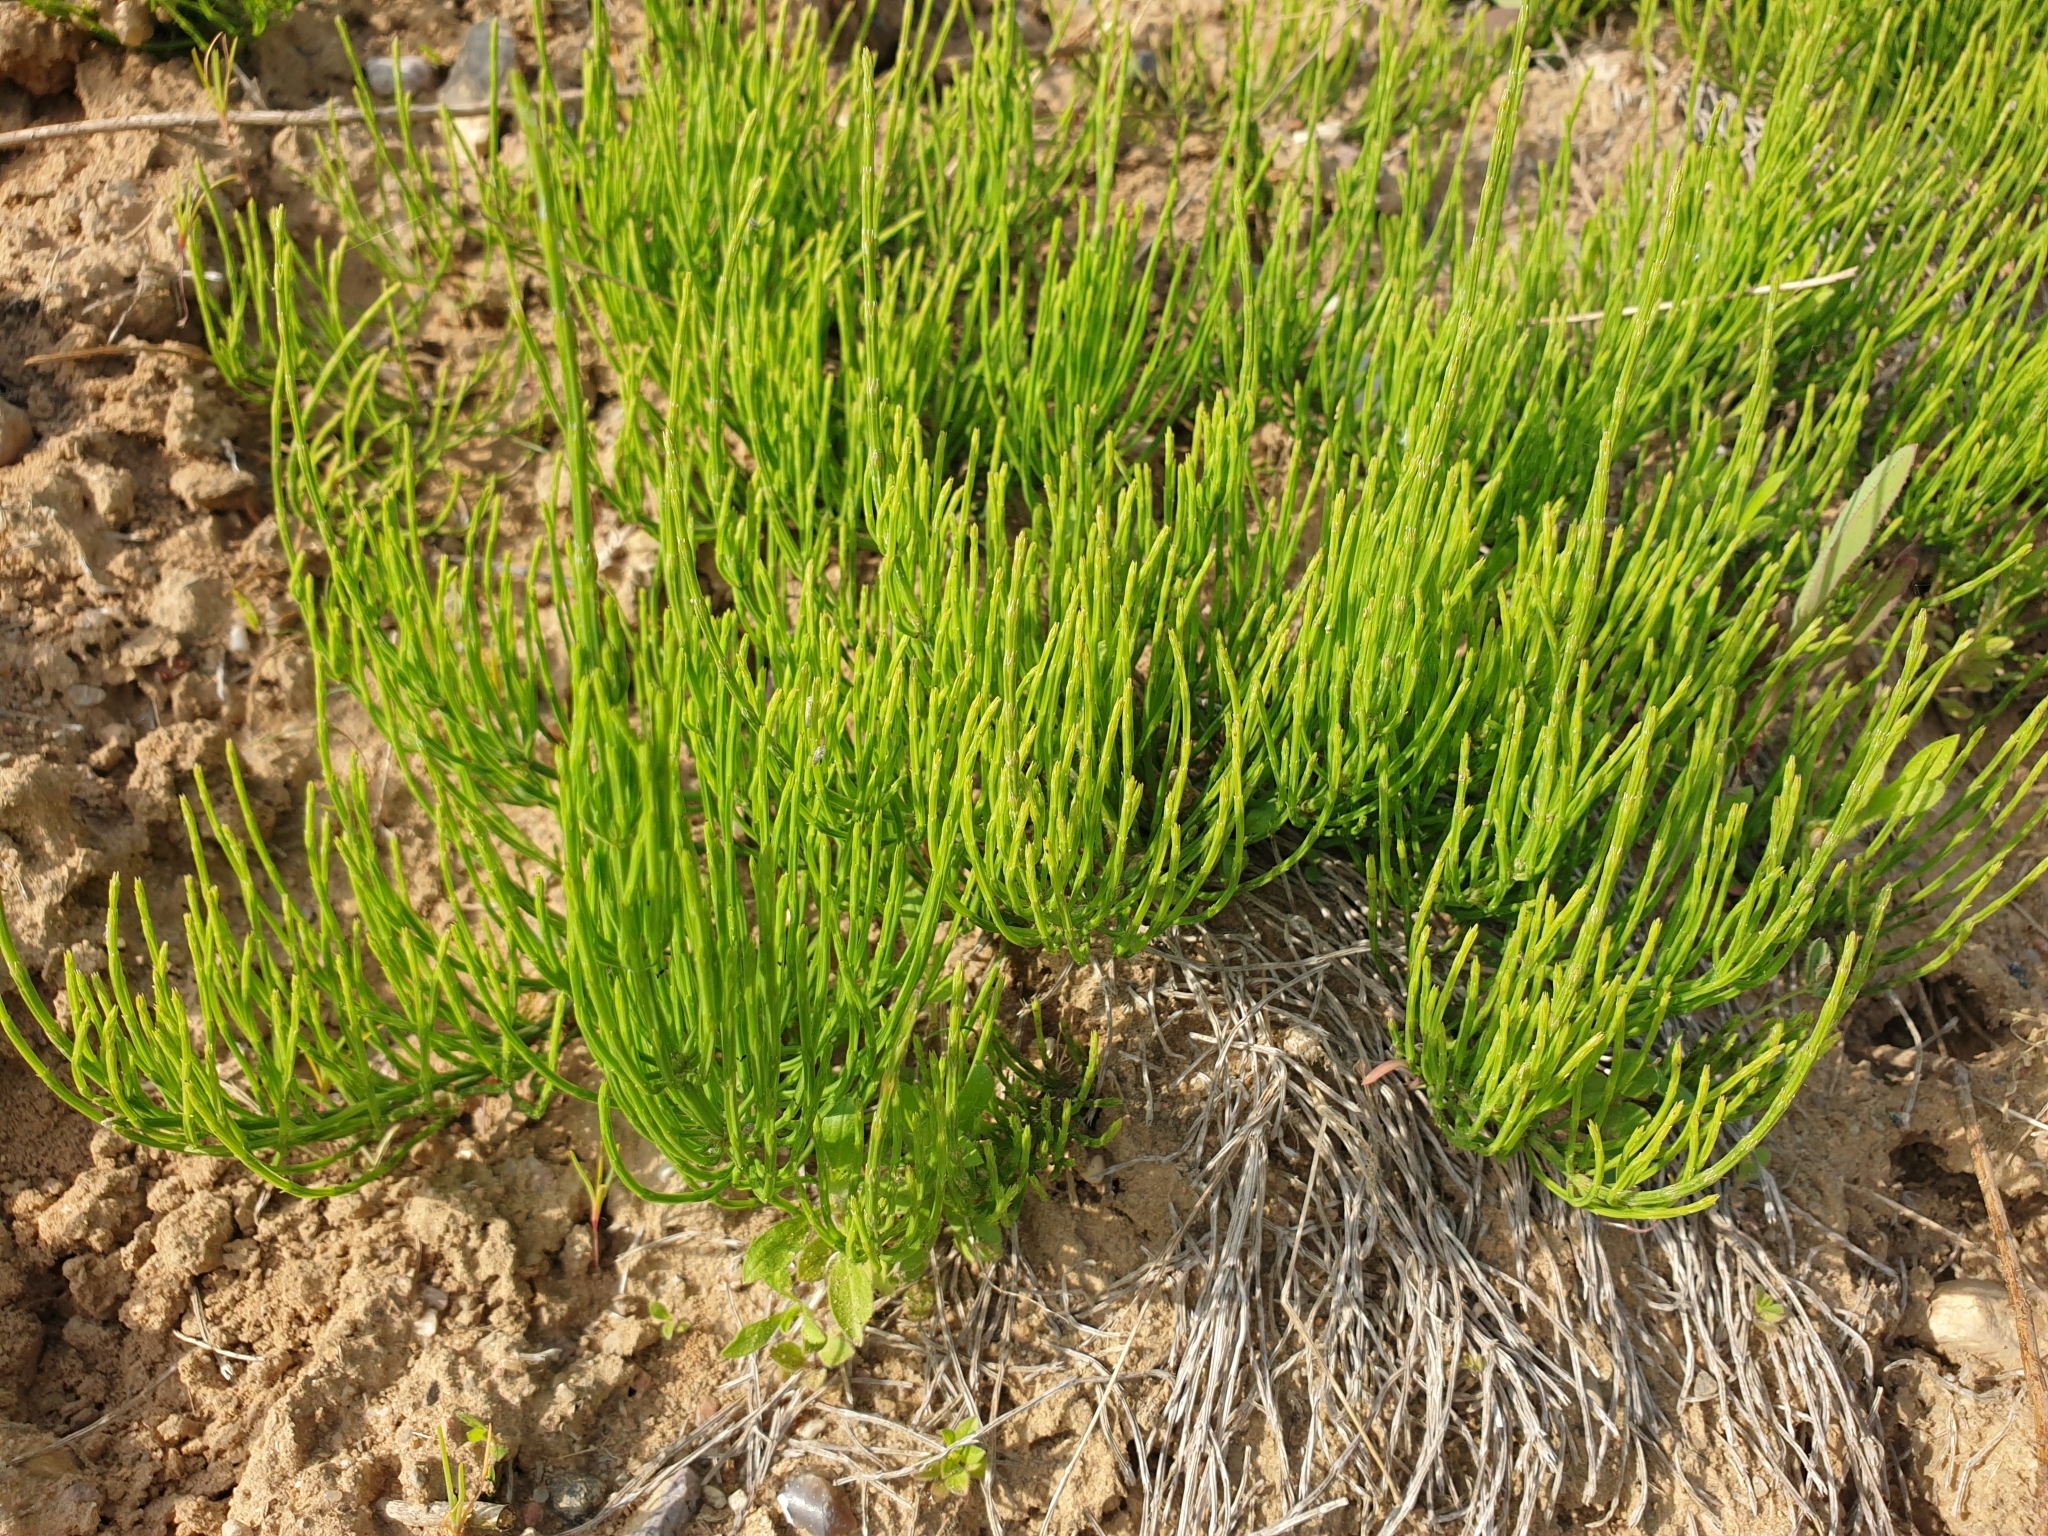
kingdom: Plantae
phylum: Tracheophyta
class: Polypodiopsida
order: Equisetales
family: Equisetaceae
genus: Equisetum
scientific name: Equisetum arvense
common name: Field horsetail
